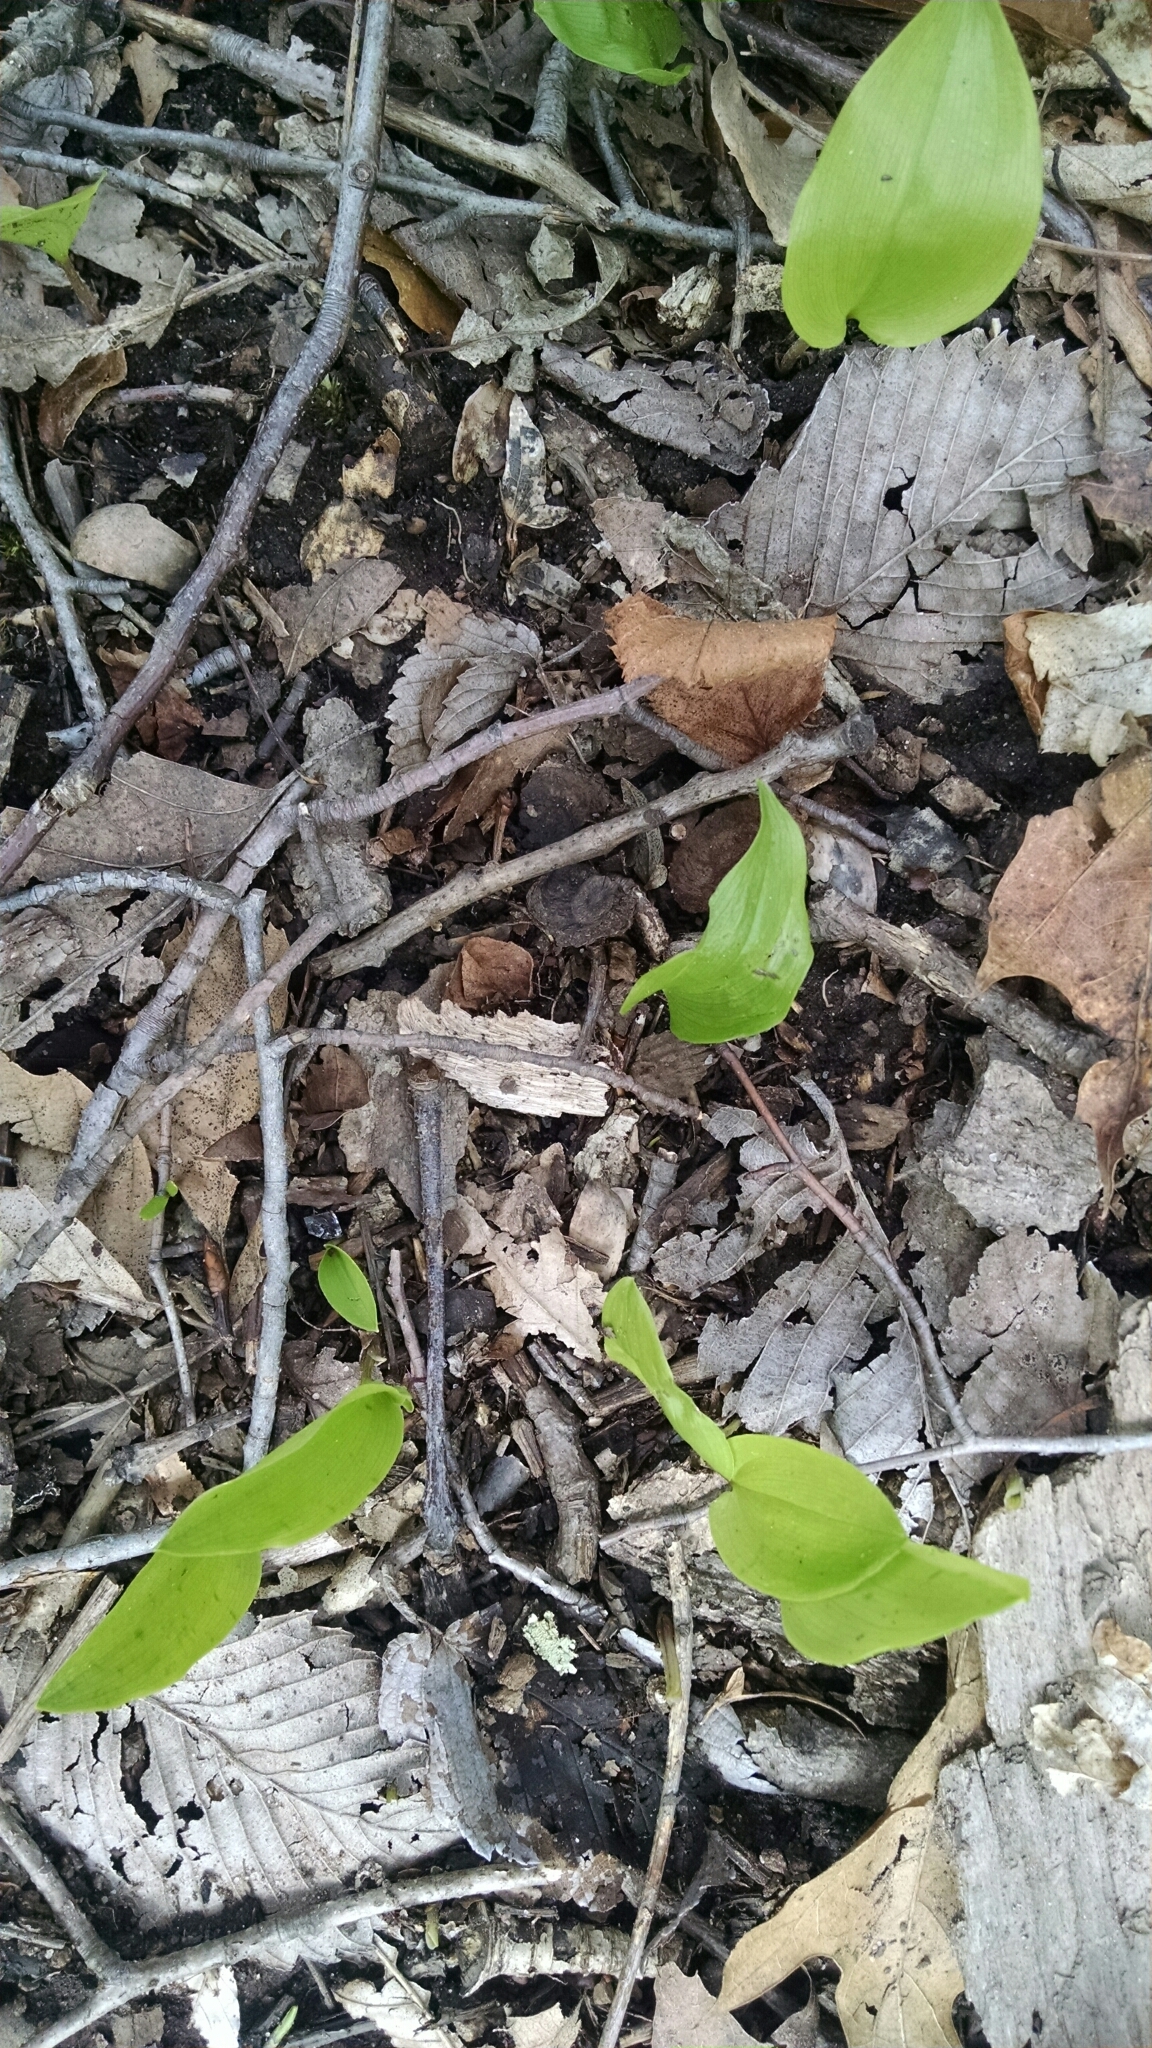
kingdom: Plantae
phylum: Tracheophyta
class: Liliopsida
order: Asparagales
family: Asparagaceae
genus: Maianthemum
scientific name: Maianthemum canadense
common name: False lily-of-the-valley
